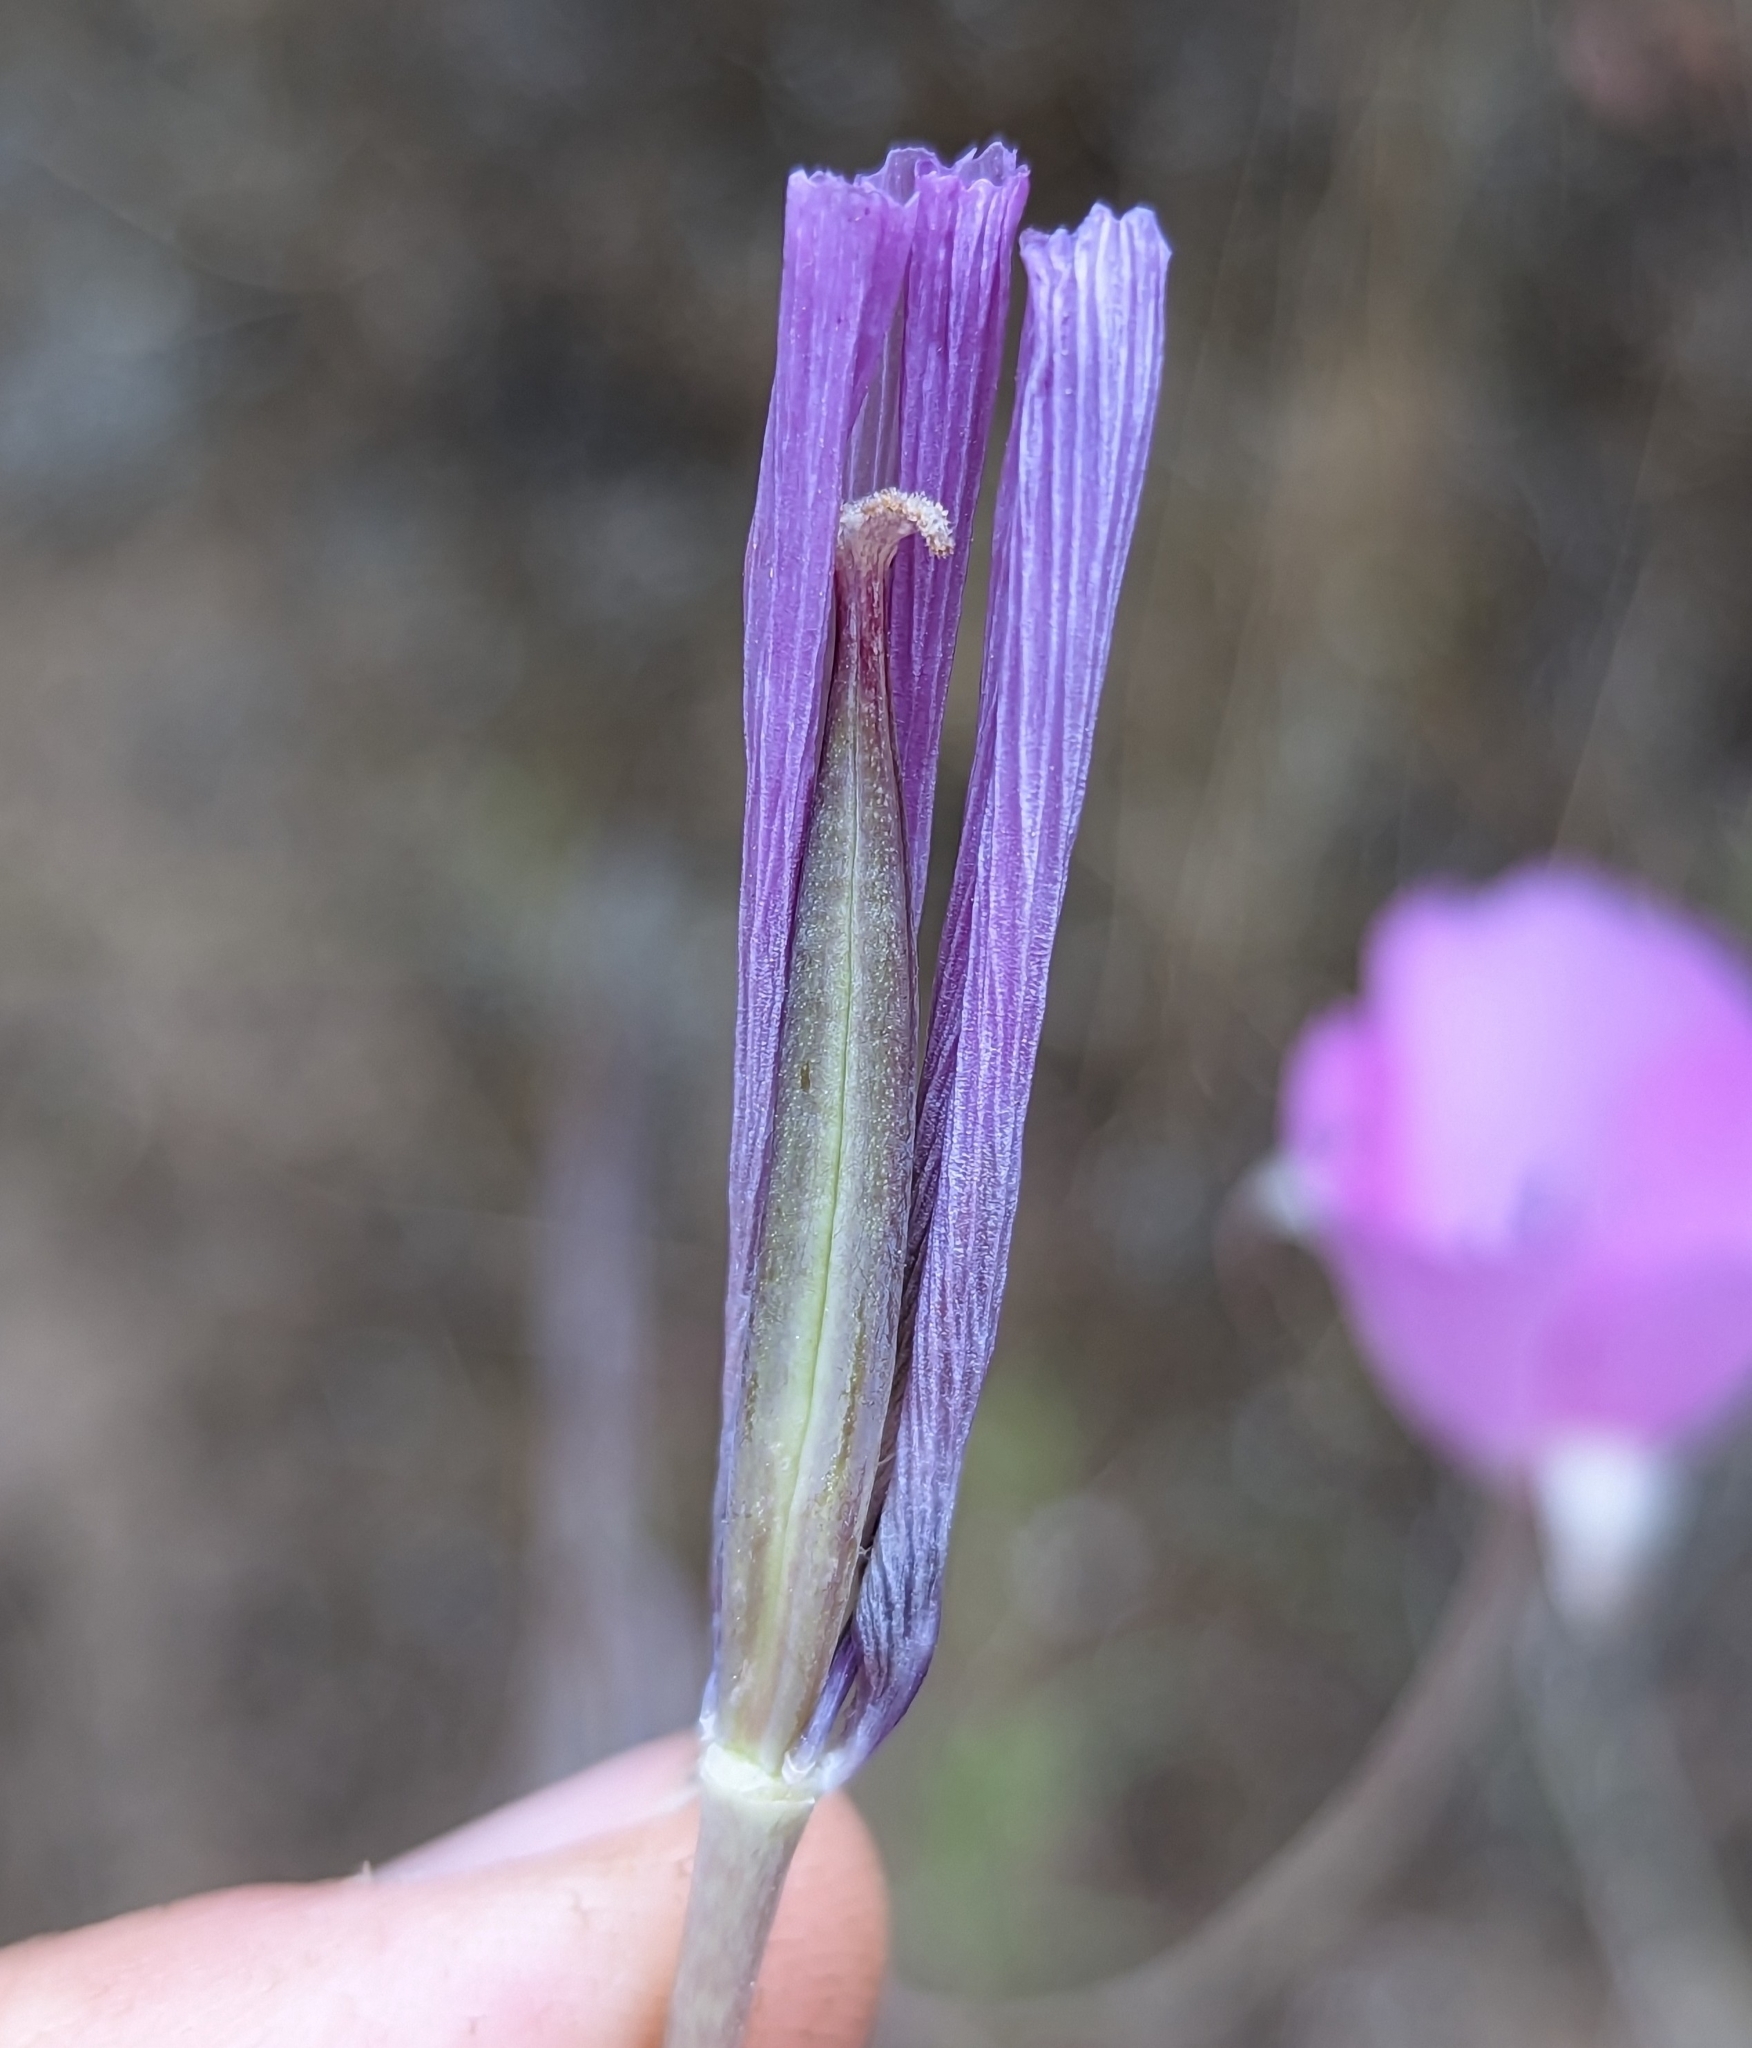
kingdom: Plantae
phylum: Tracheophyta
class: Liliopsida
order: Liliales
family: Liliaceae
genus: Calochortus
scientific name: Calochortus splendens
